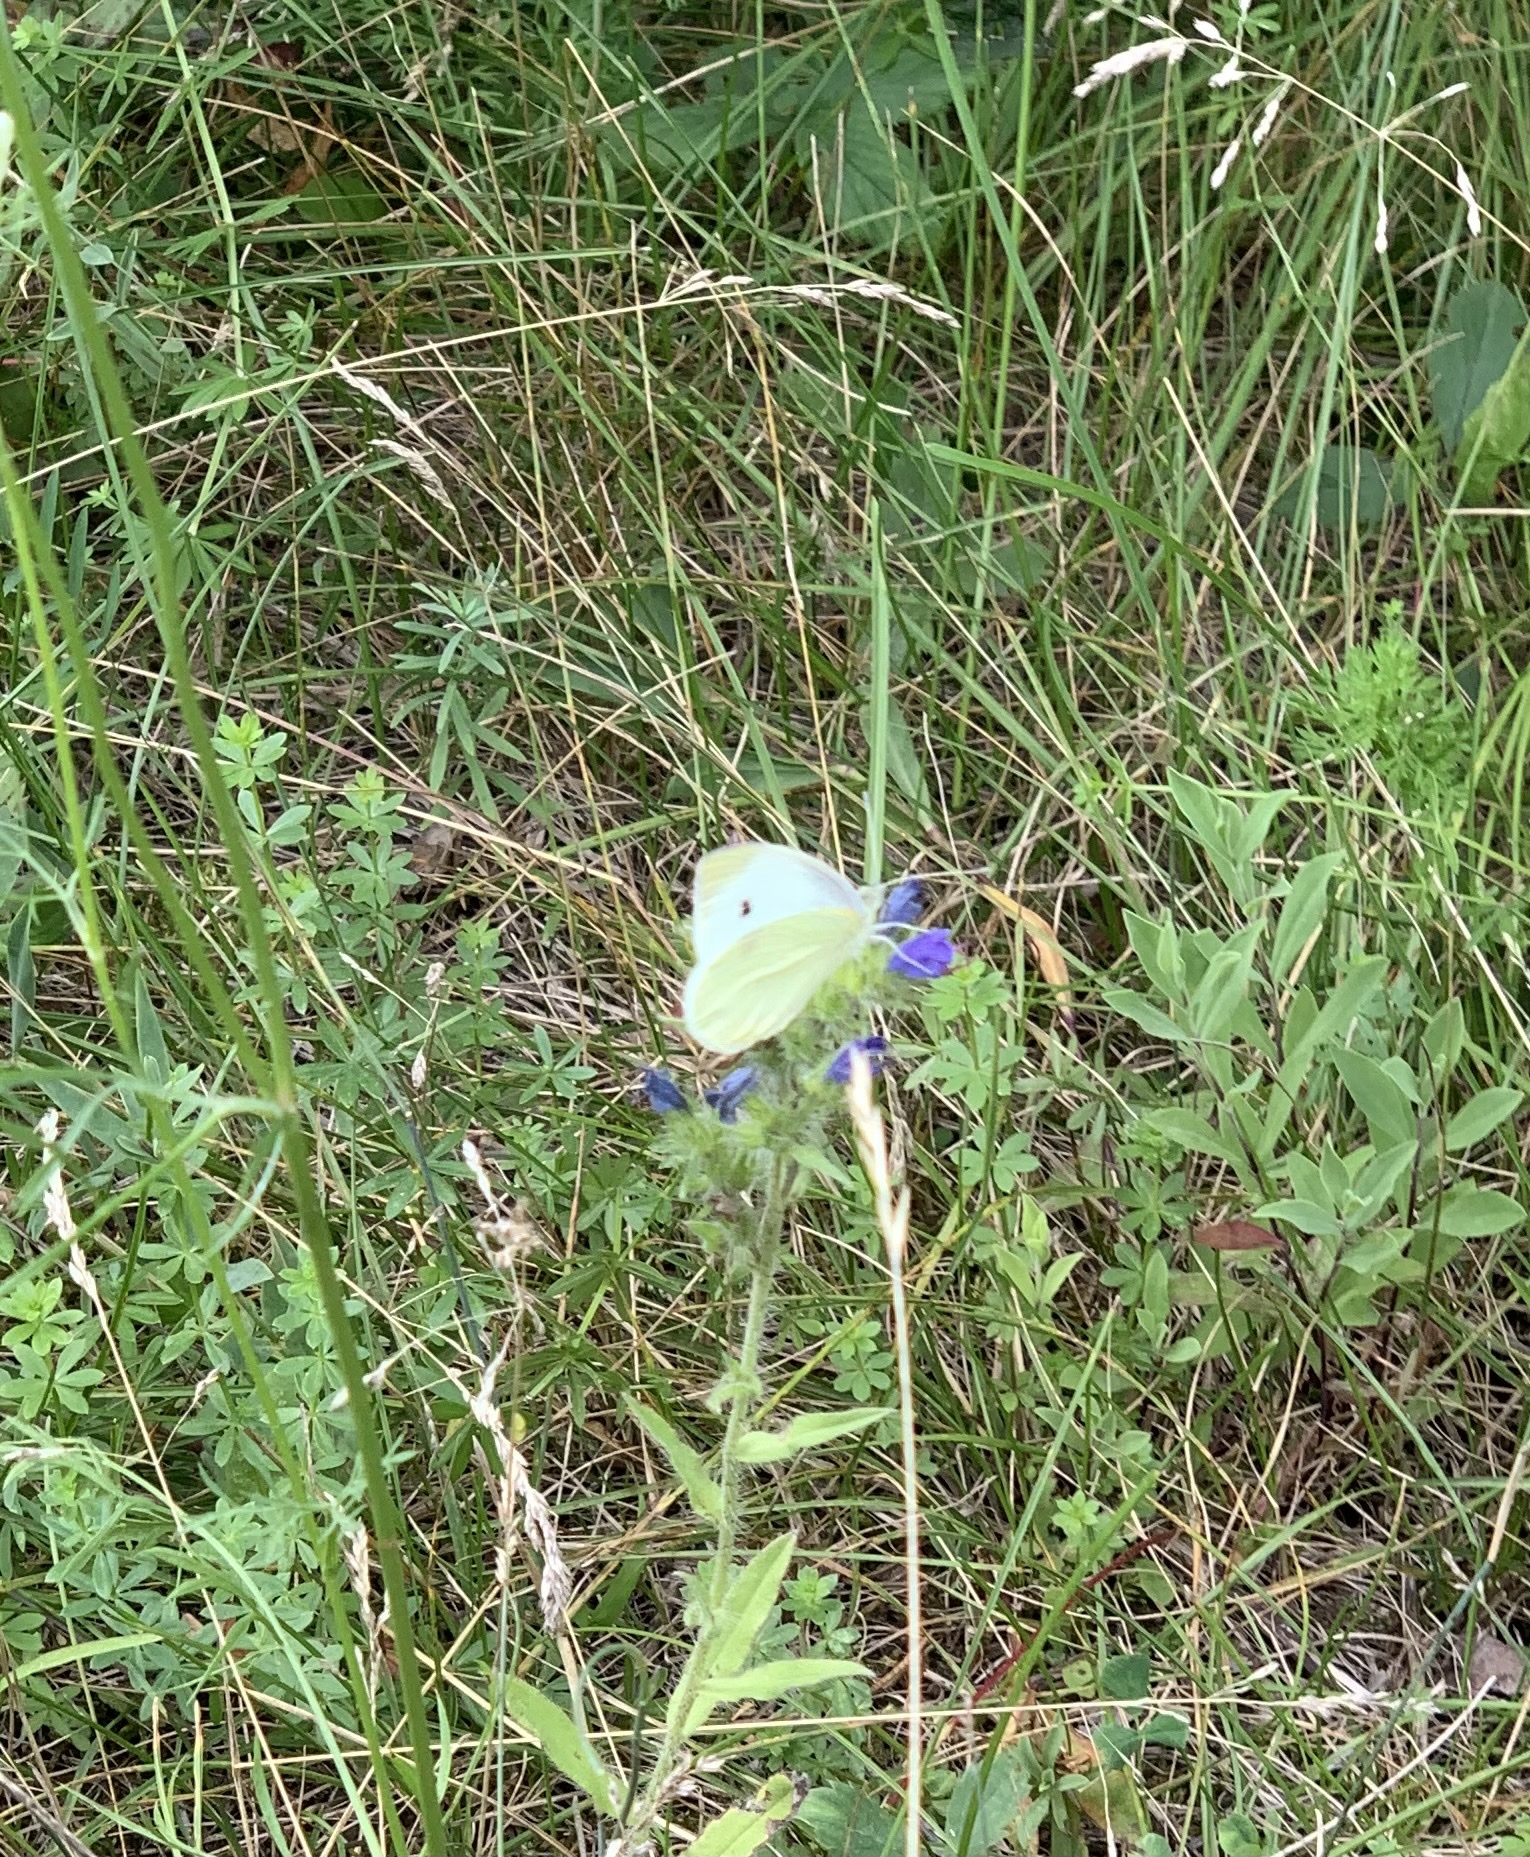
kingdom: Animalia
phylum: Arthropoda
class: Insecta
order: Lepidoptera
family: Pieridae
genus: Pieris
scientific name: Pieris rapae
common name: Small white
